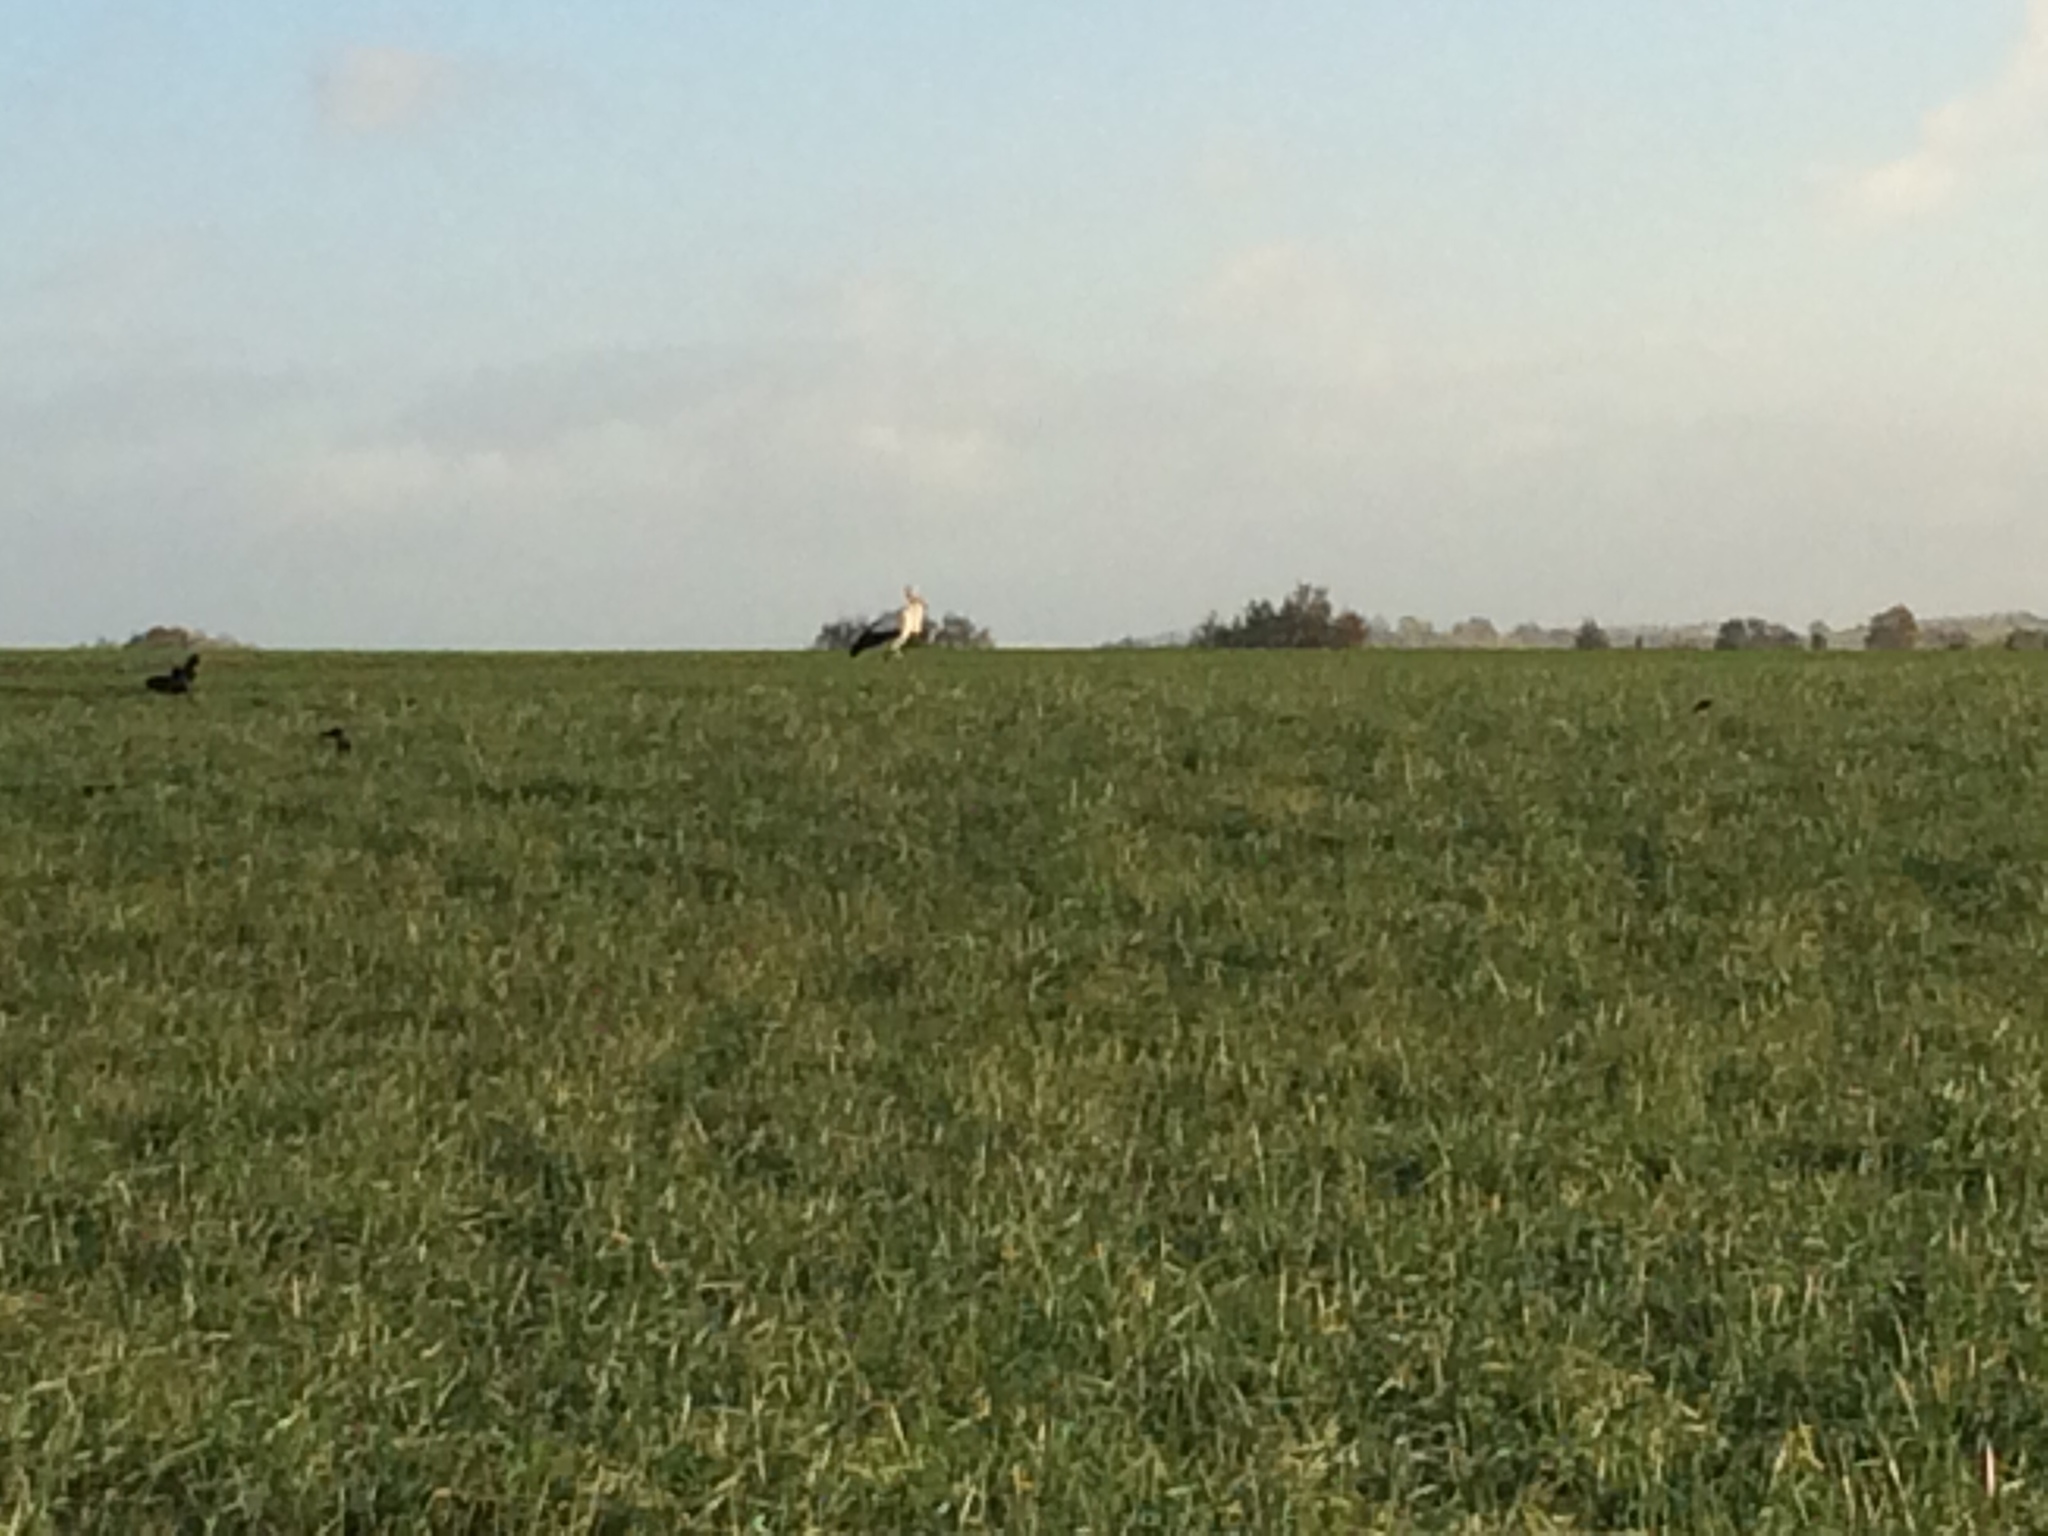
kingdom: Animalia
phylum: Chordata
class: Aves
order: Ciconiiformes
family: Ciconiidae
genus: Ciconia
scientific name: Ciconia ciconia
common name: White stork
